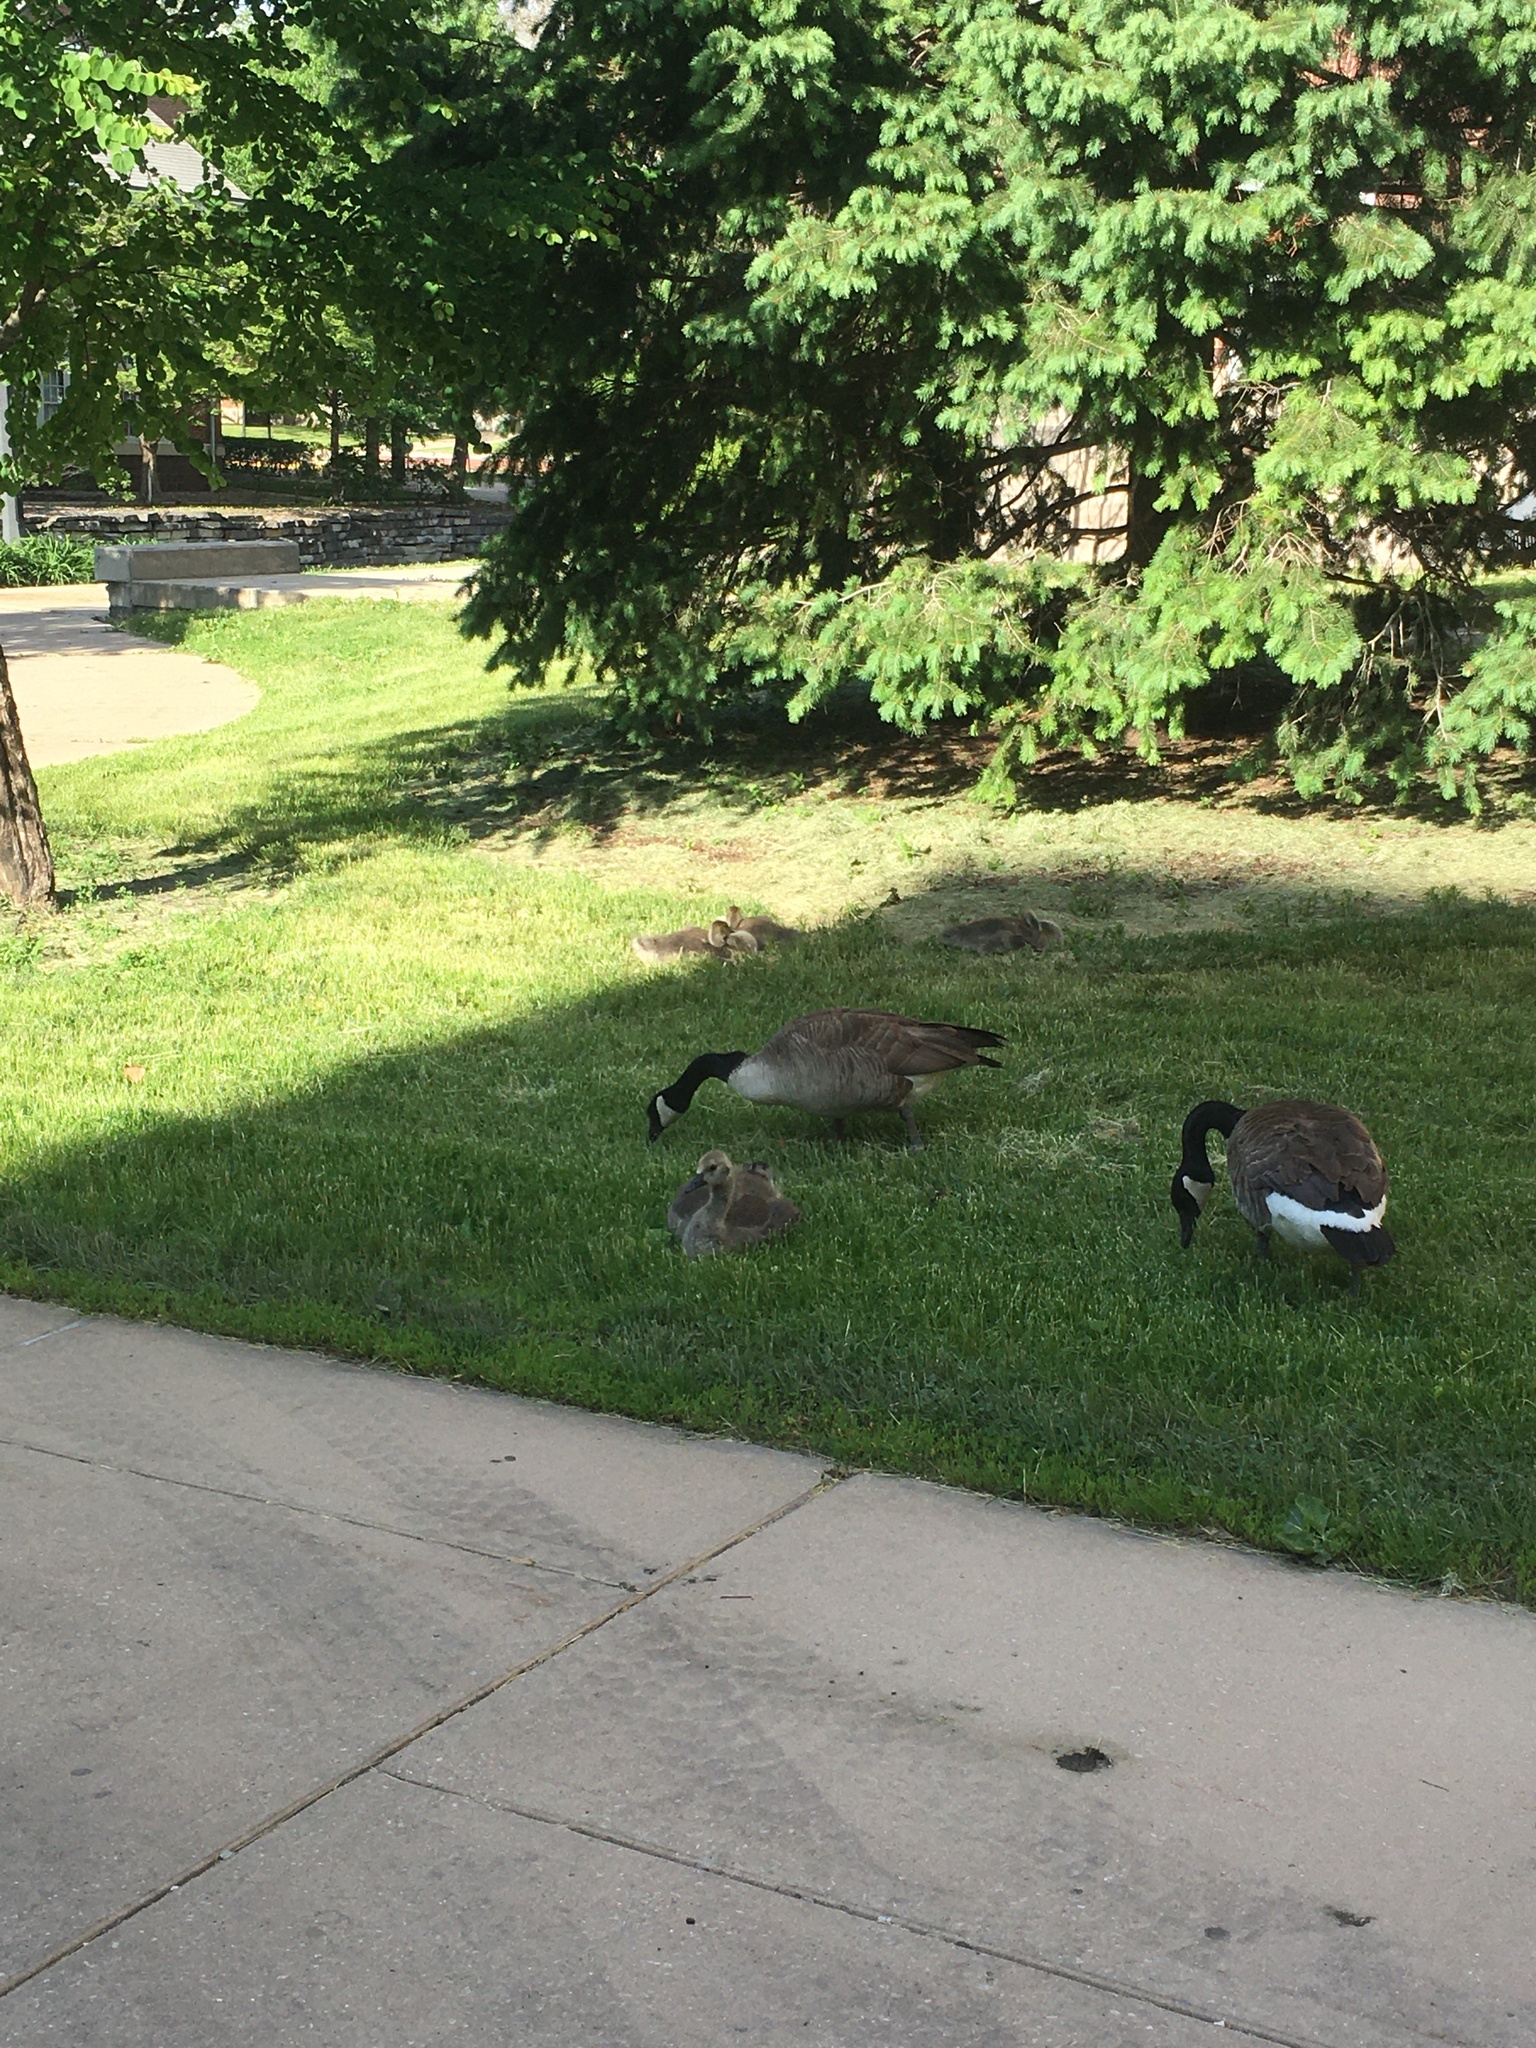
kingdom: Animalia
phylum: Chordata
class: Aves
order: Anseriformes
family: Anatidae
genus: Branta
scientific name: Branta canadensis
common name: Canada goose
